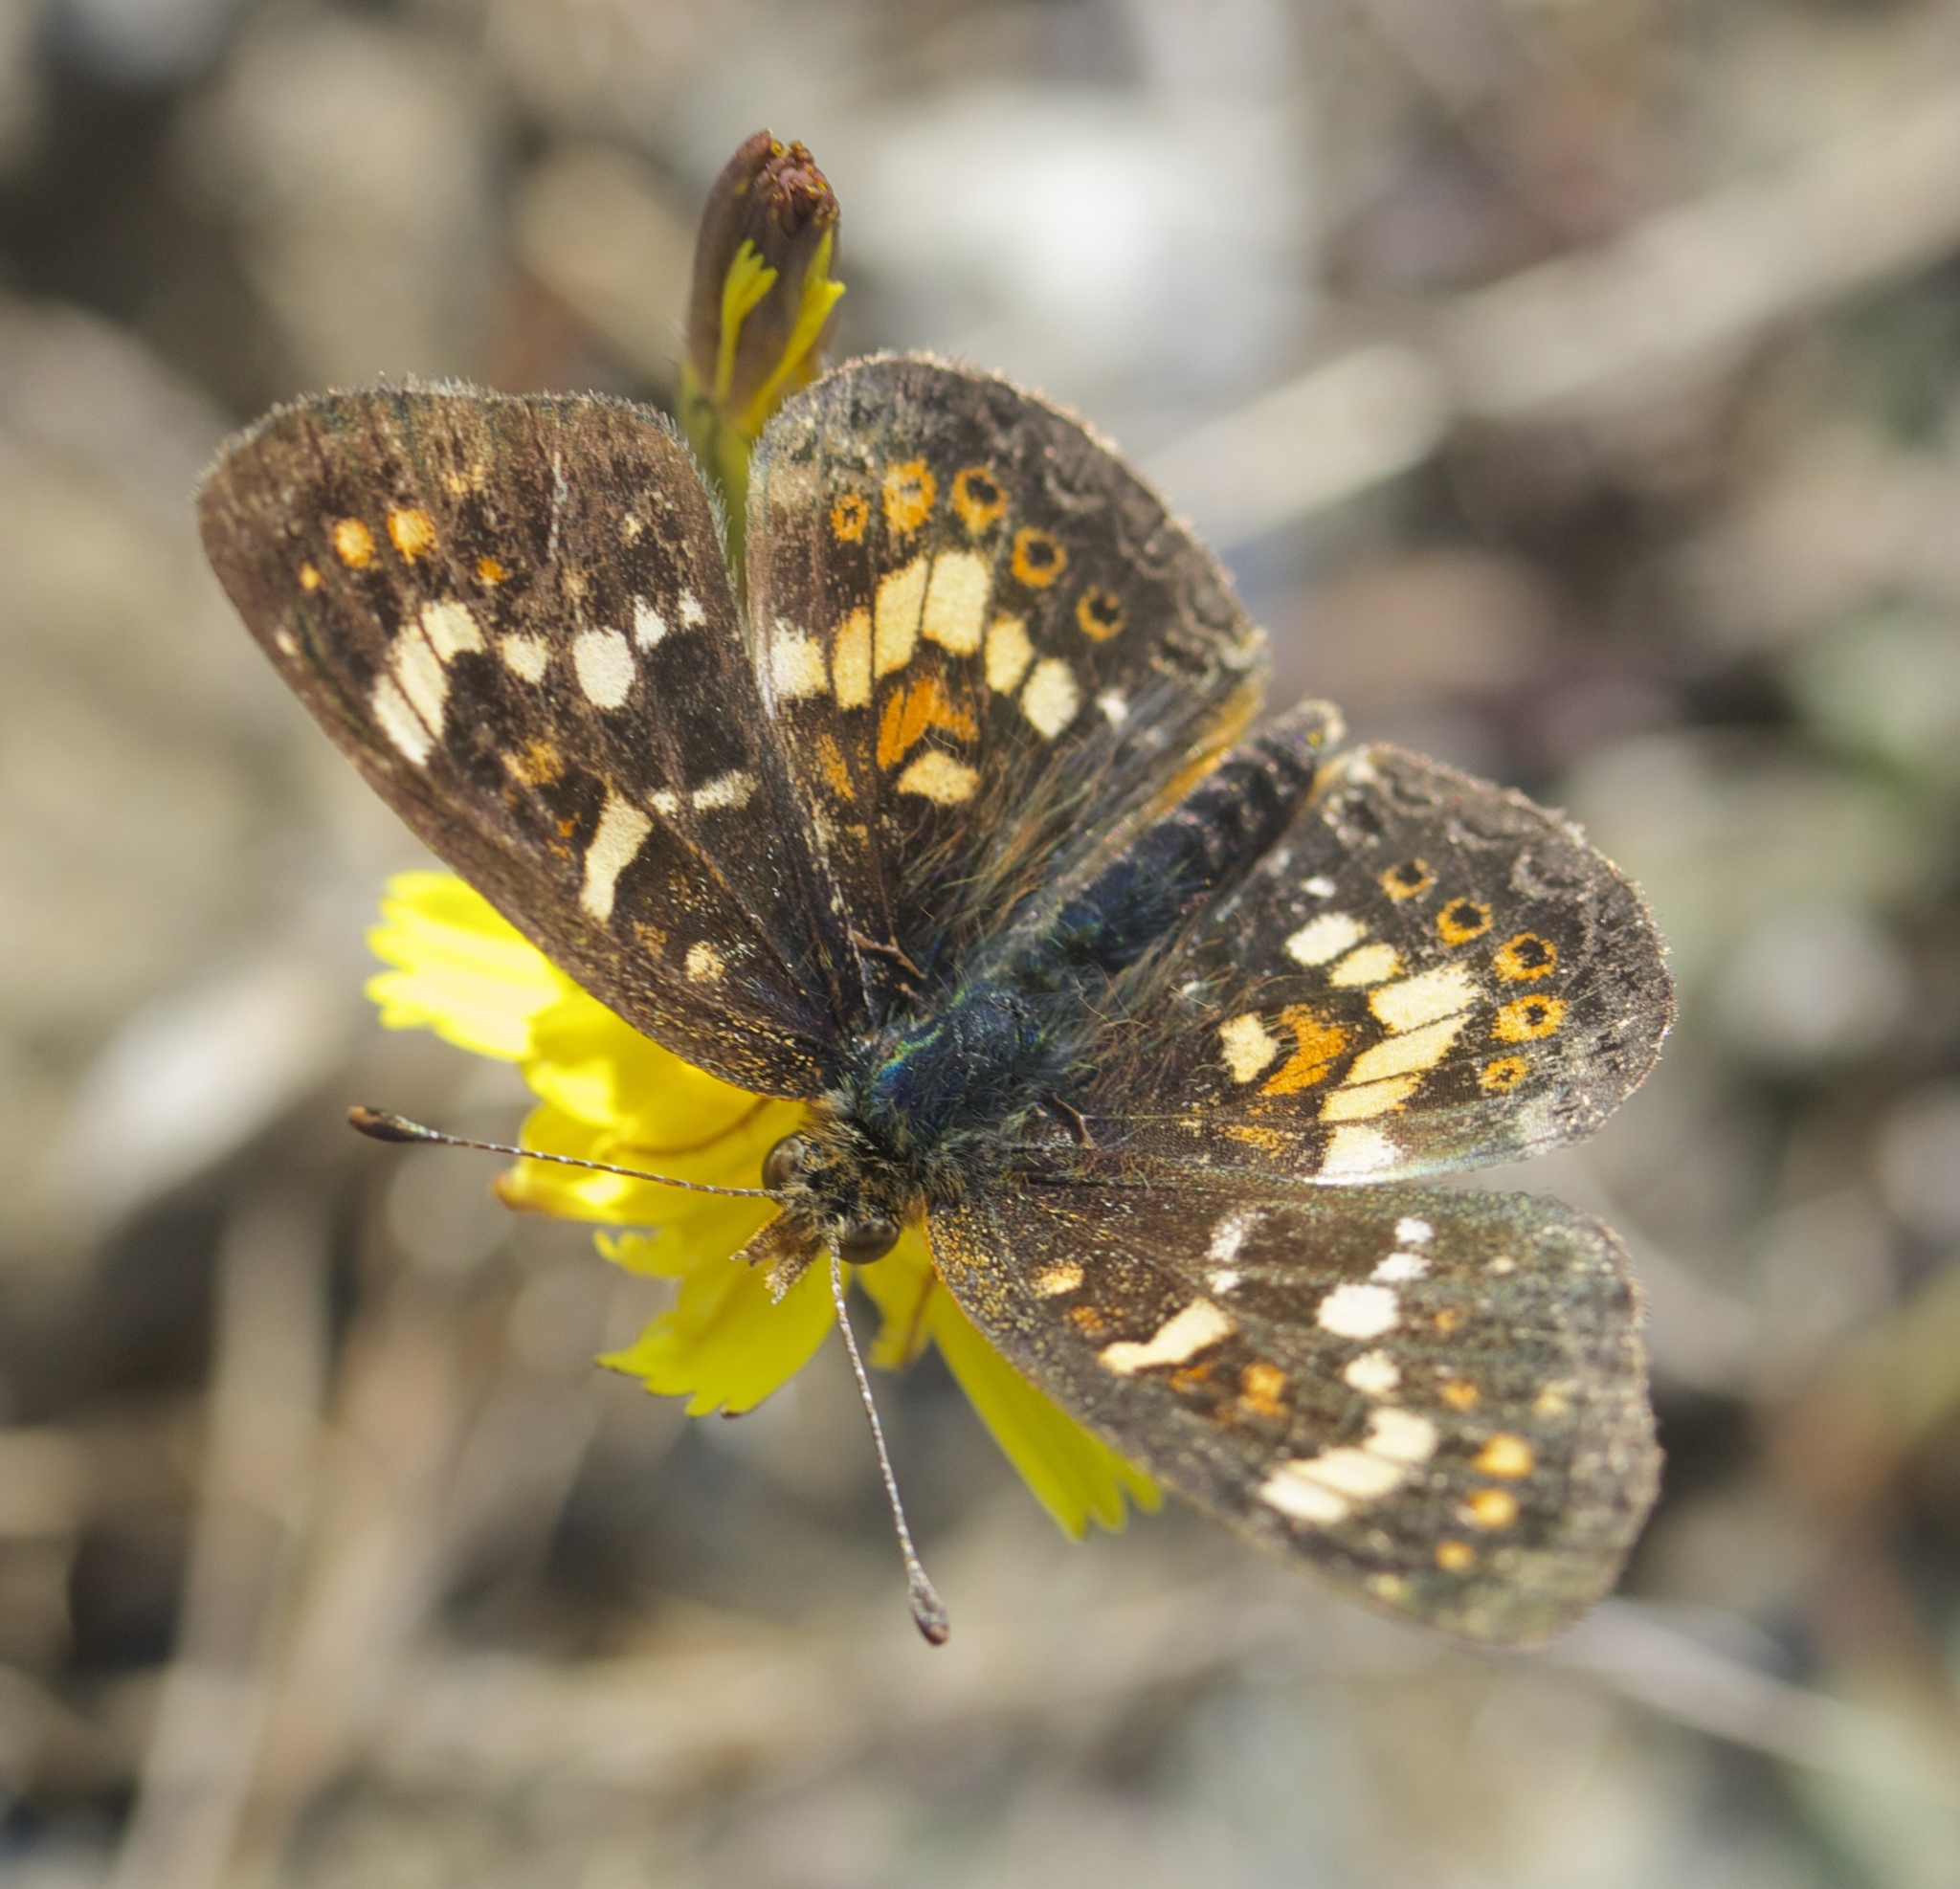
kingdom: Animalia
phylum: Arthropoda
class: Insecta
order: Lepidoptera
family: Nymphalidae
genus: Phyciodes
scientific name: Phyciodes tharos
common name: Pearl crescent
